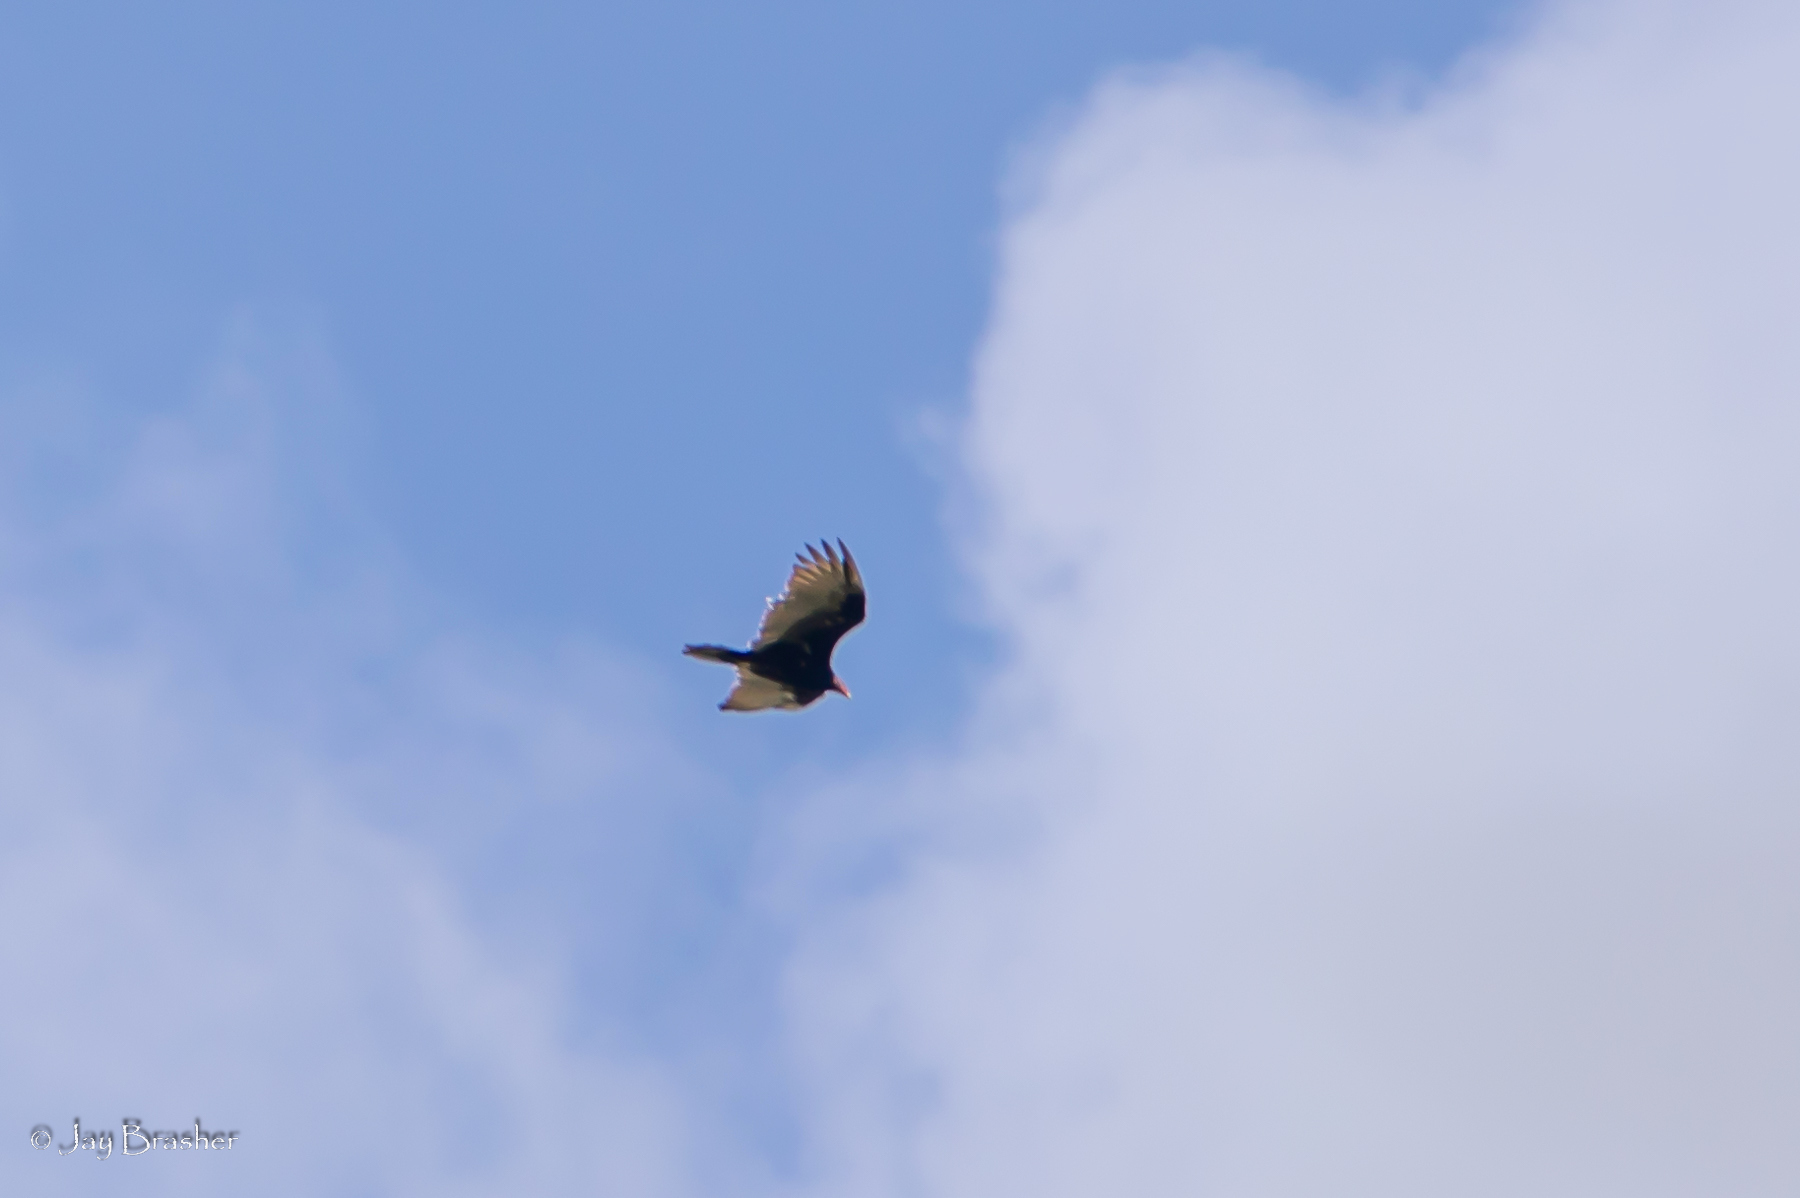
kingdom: Animalia
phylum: Chordata
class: Aves
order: Accipitriformes
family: Cathartidae
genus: Cathartes
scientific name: Cathartes aura
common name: Turkey vulture
